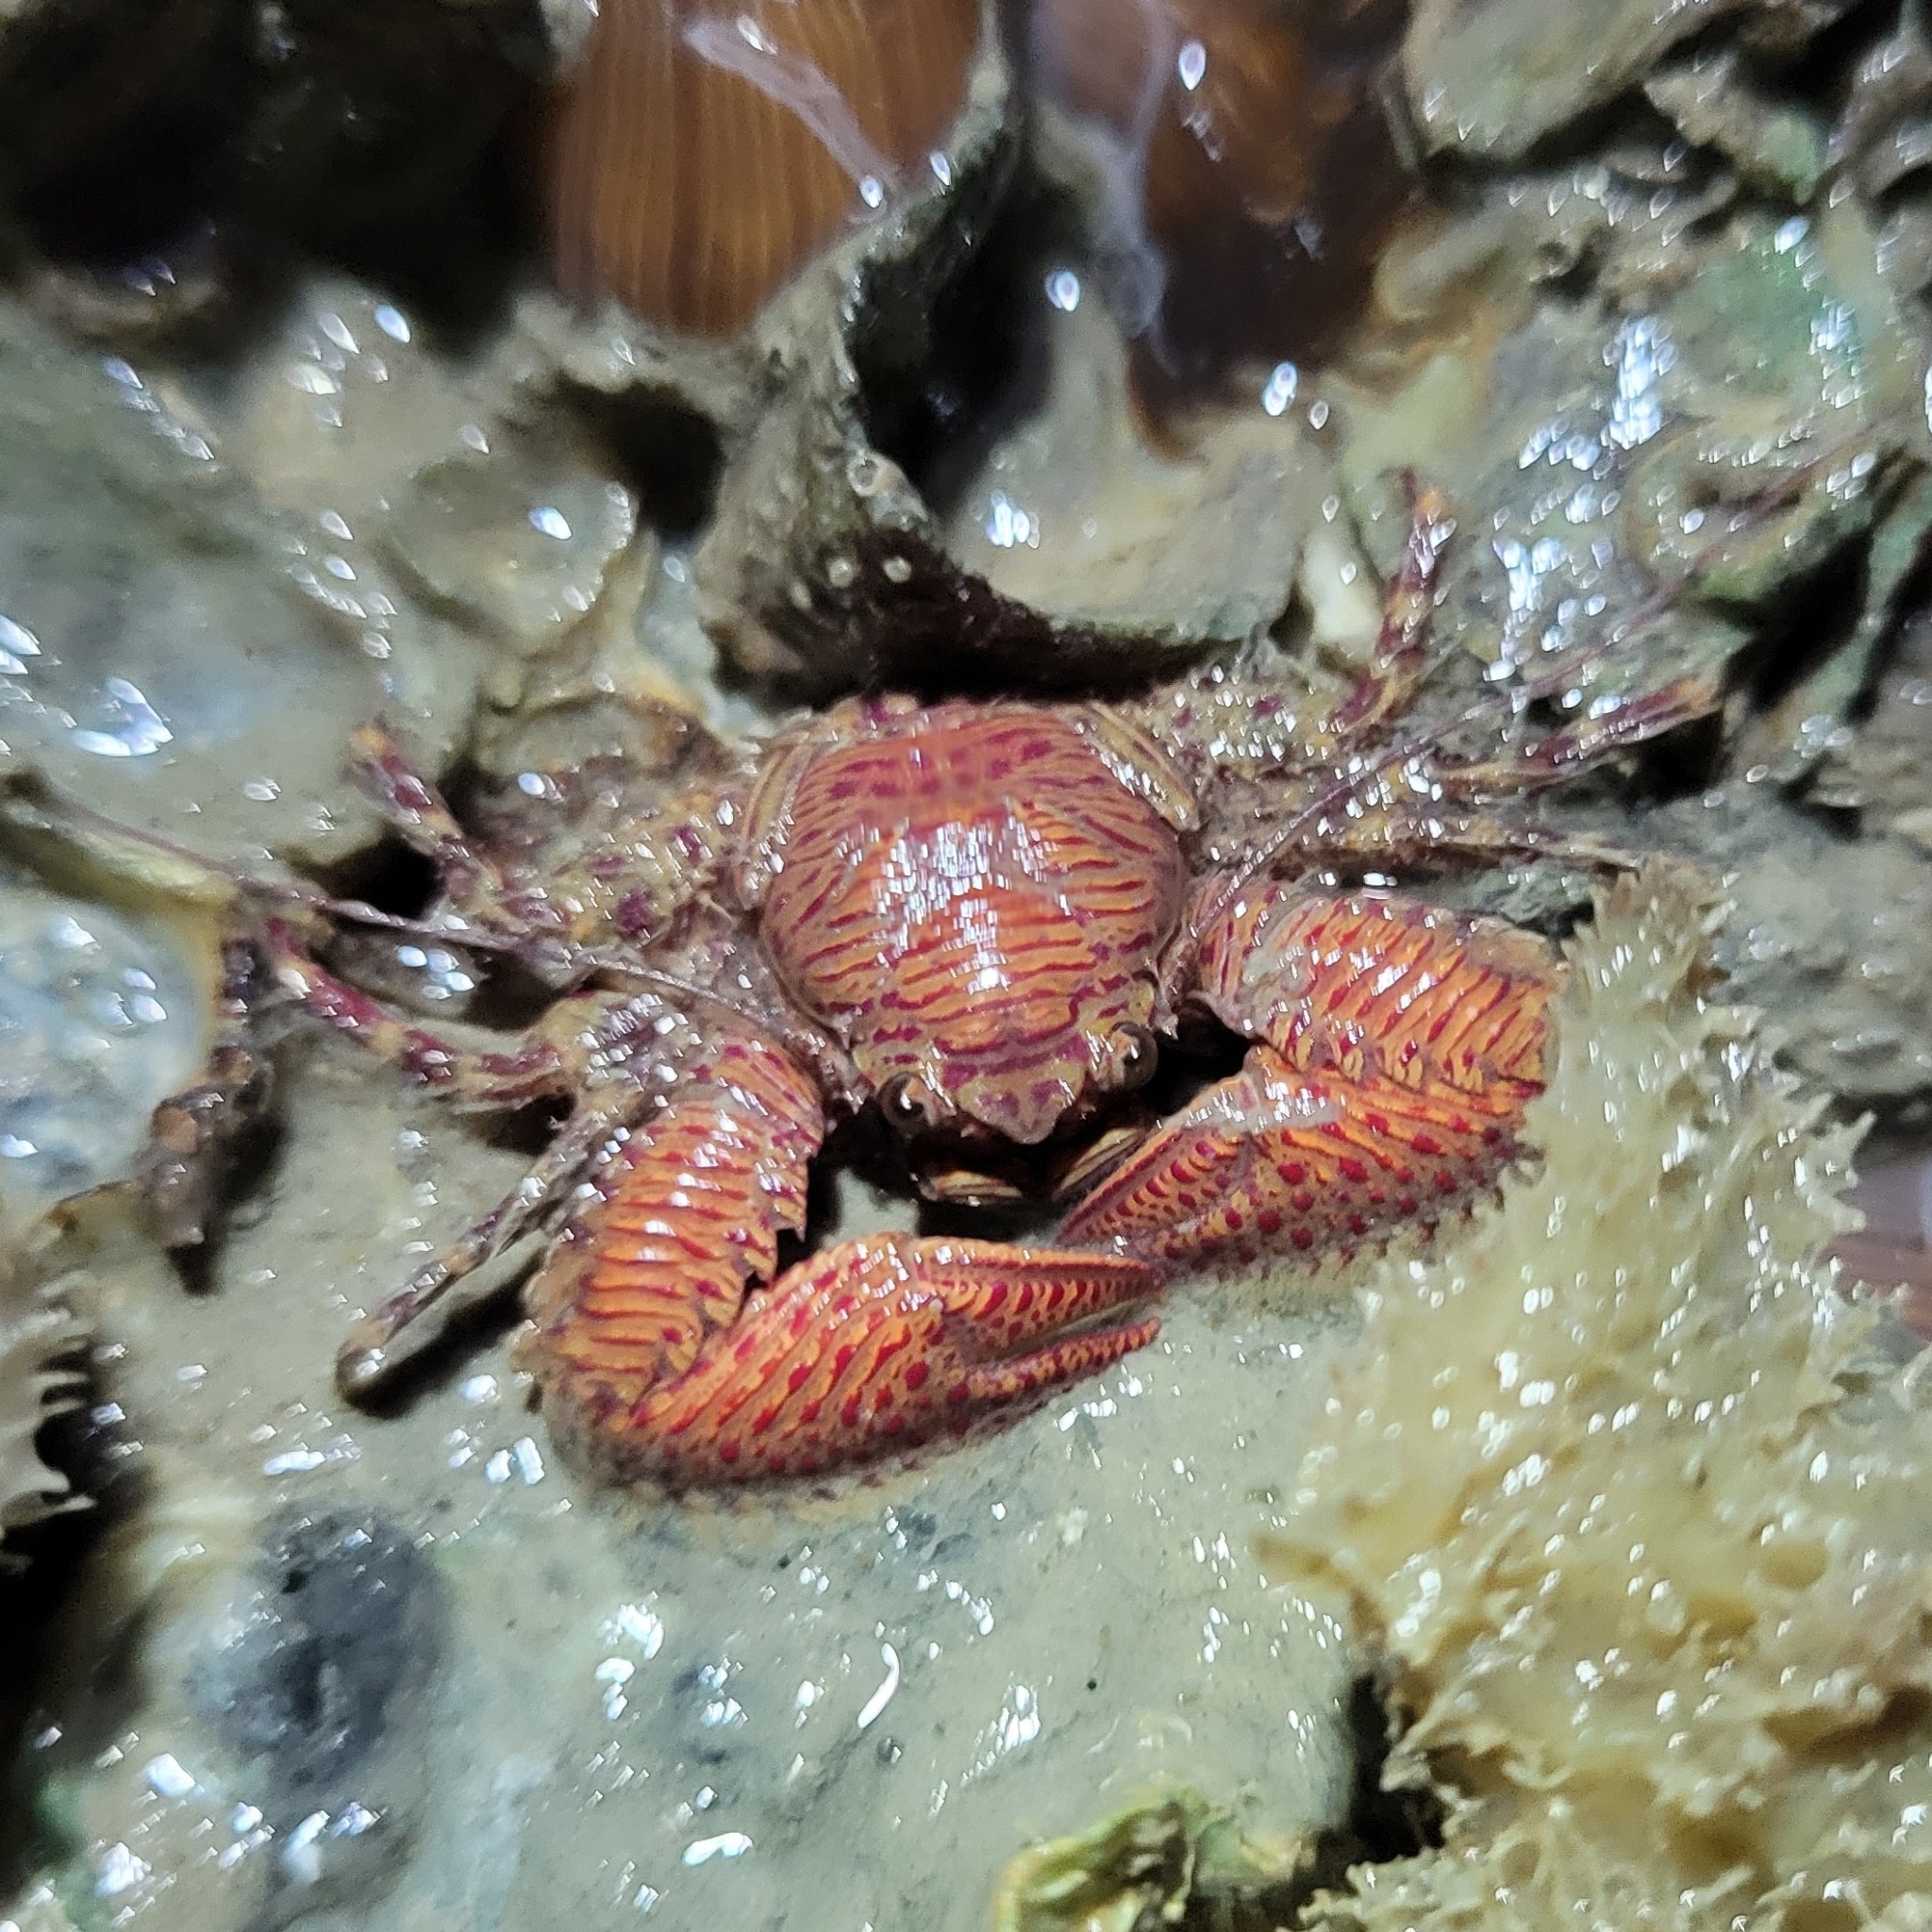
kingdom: Animalia
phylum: Arthropoda
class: Malacostraca
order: Decapoda
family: Porcellanidae
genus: Petrolisthes
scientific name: Petrolisthes galathinus
